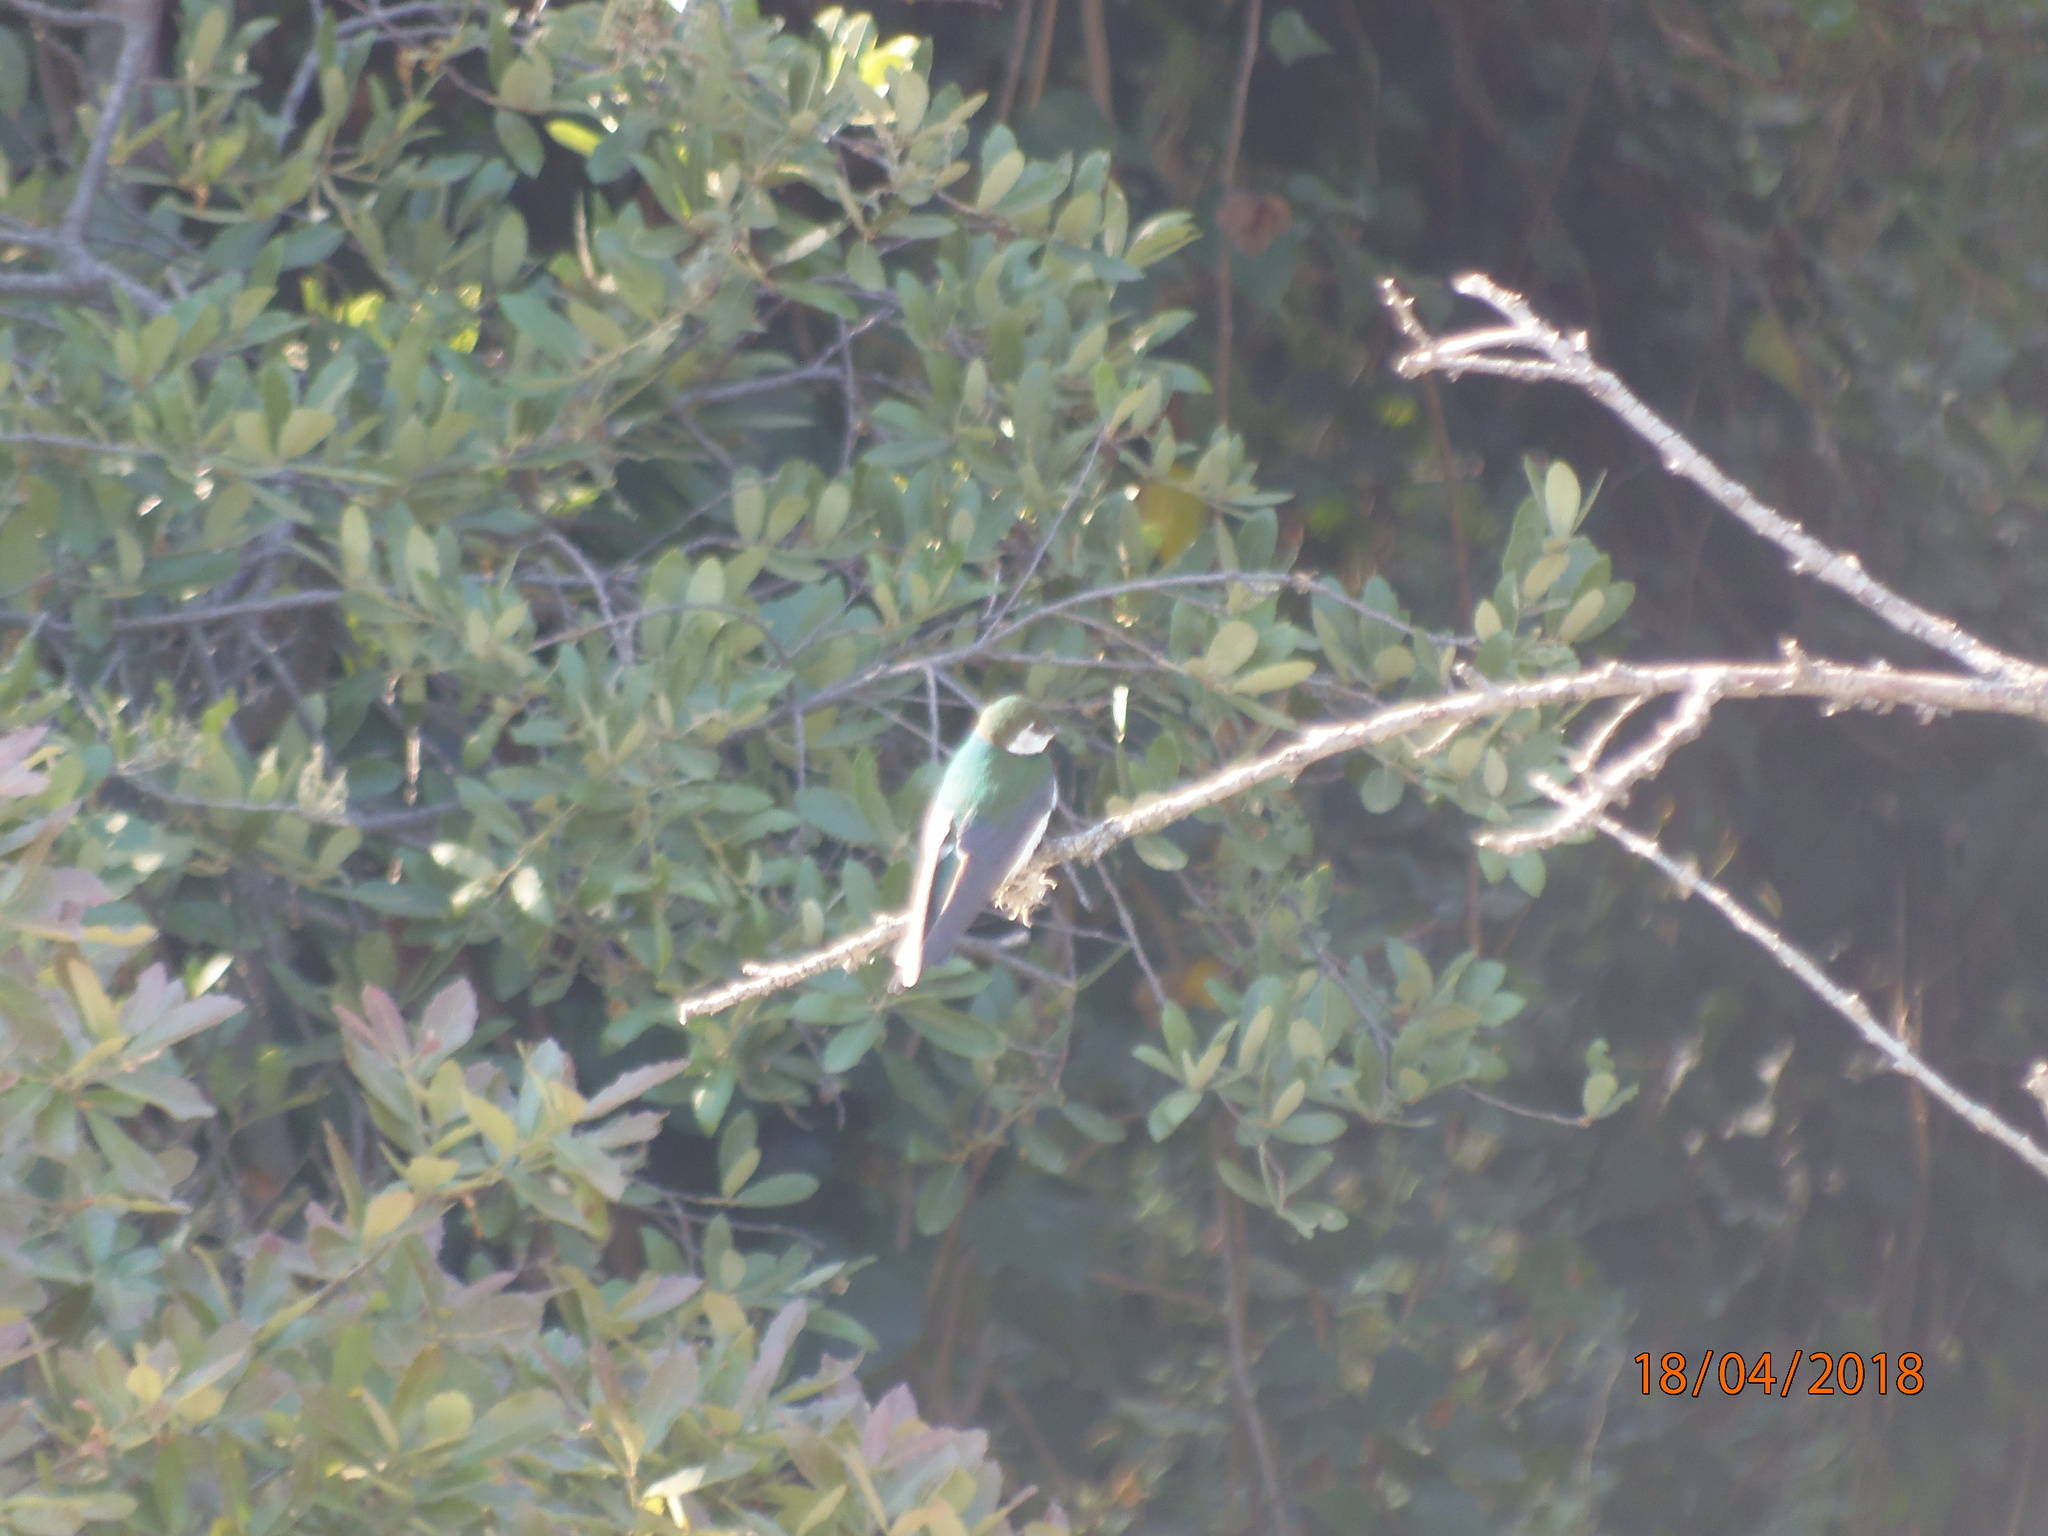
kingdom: Animalia
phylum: Chordata
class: Aves
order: Passeriformes
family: Hirundinidae
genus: Tachycineta
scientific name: Tachycineta thalassina
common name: Violet-green swallow
